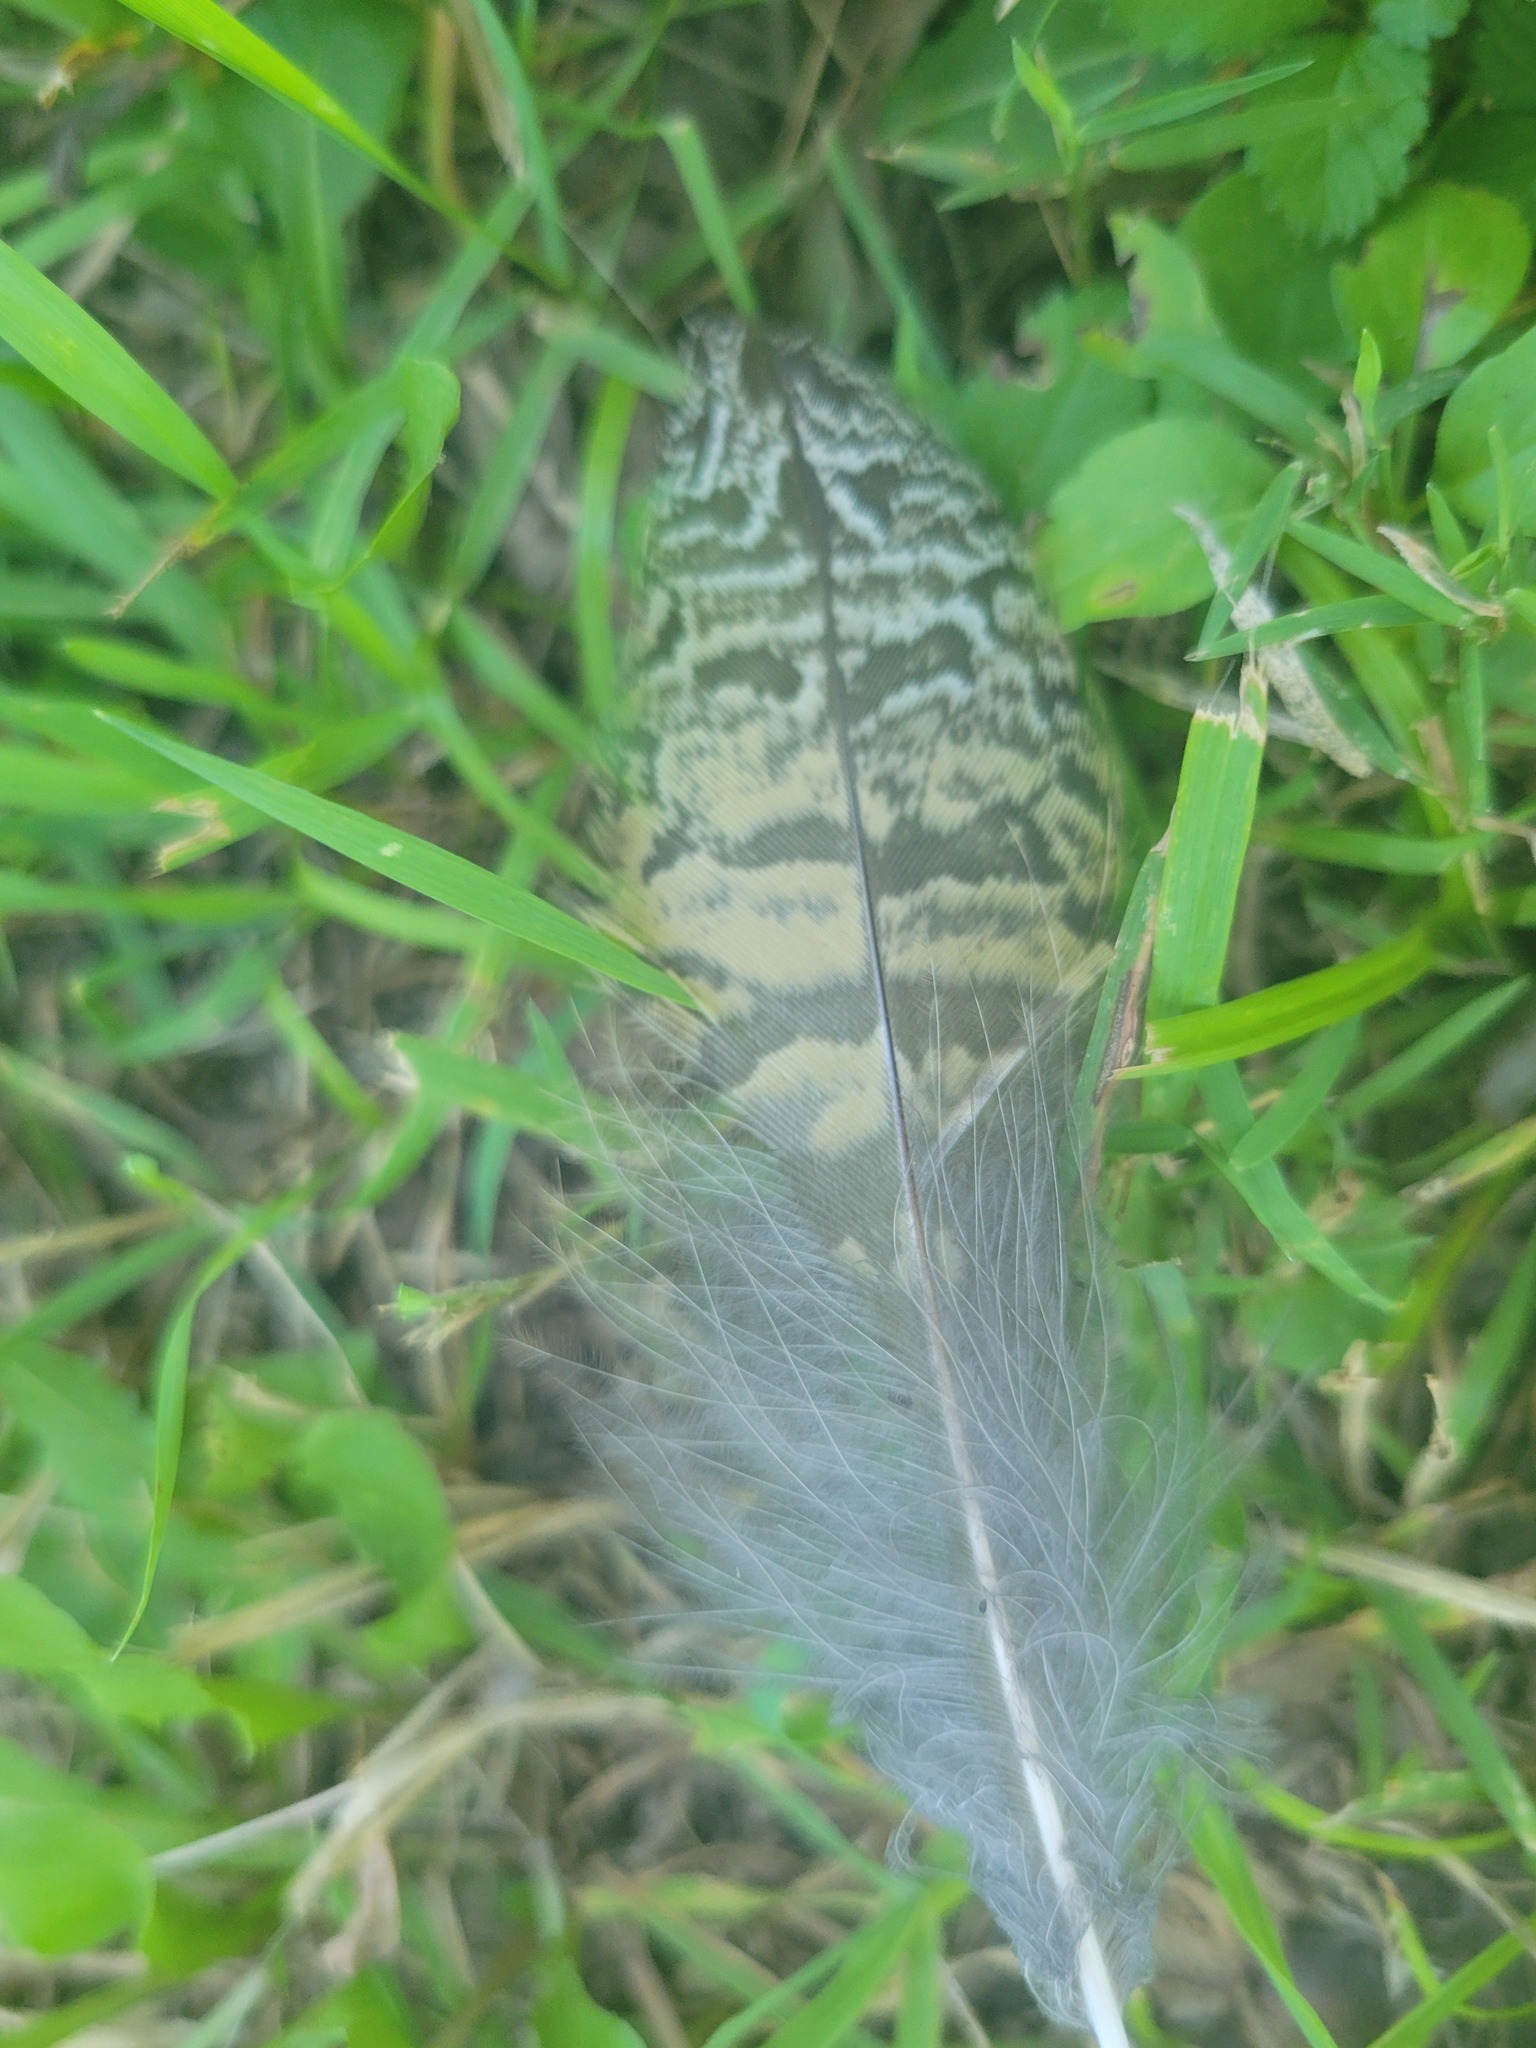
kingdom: Animalia
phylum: Chordata
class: Aves
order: Strigiformes
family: Strigidae
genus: Bubo
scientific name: Bubo virginianus
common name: Great horned owl
